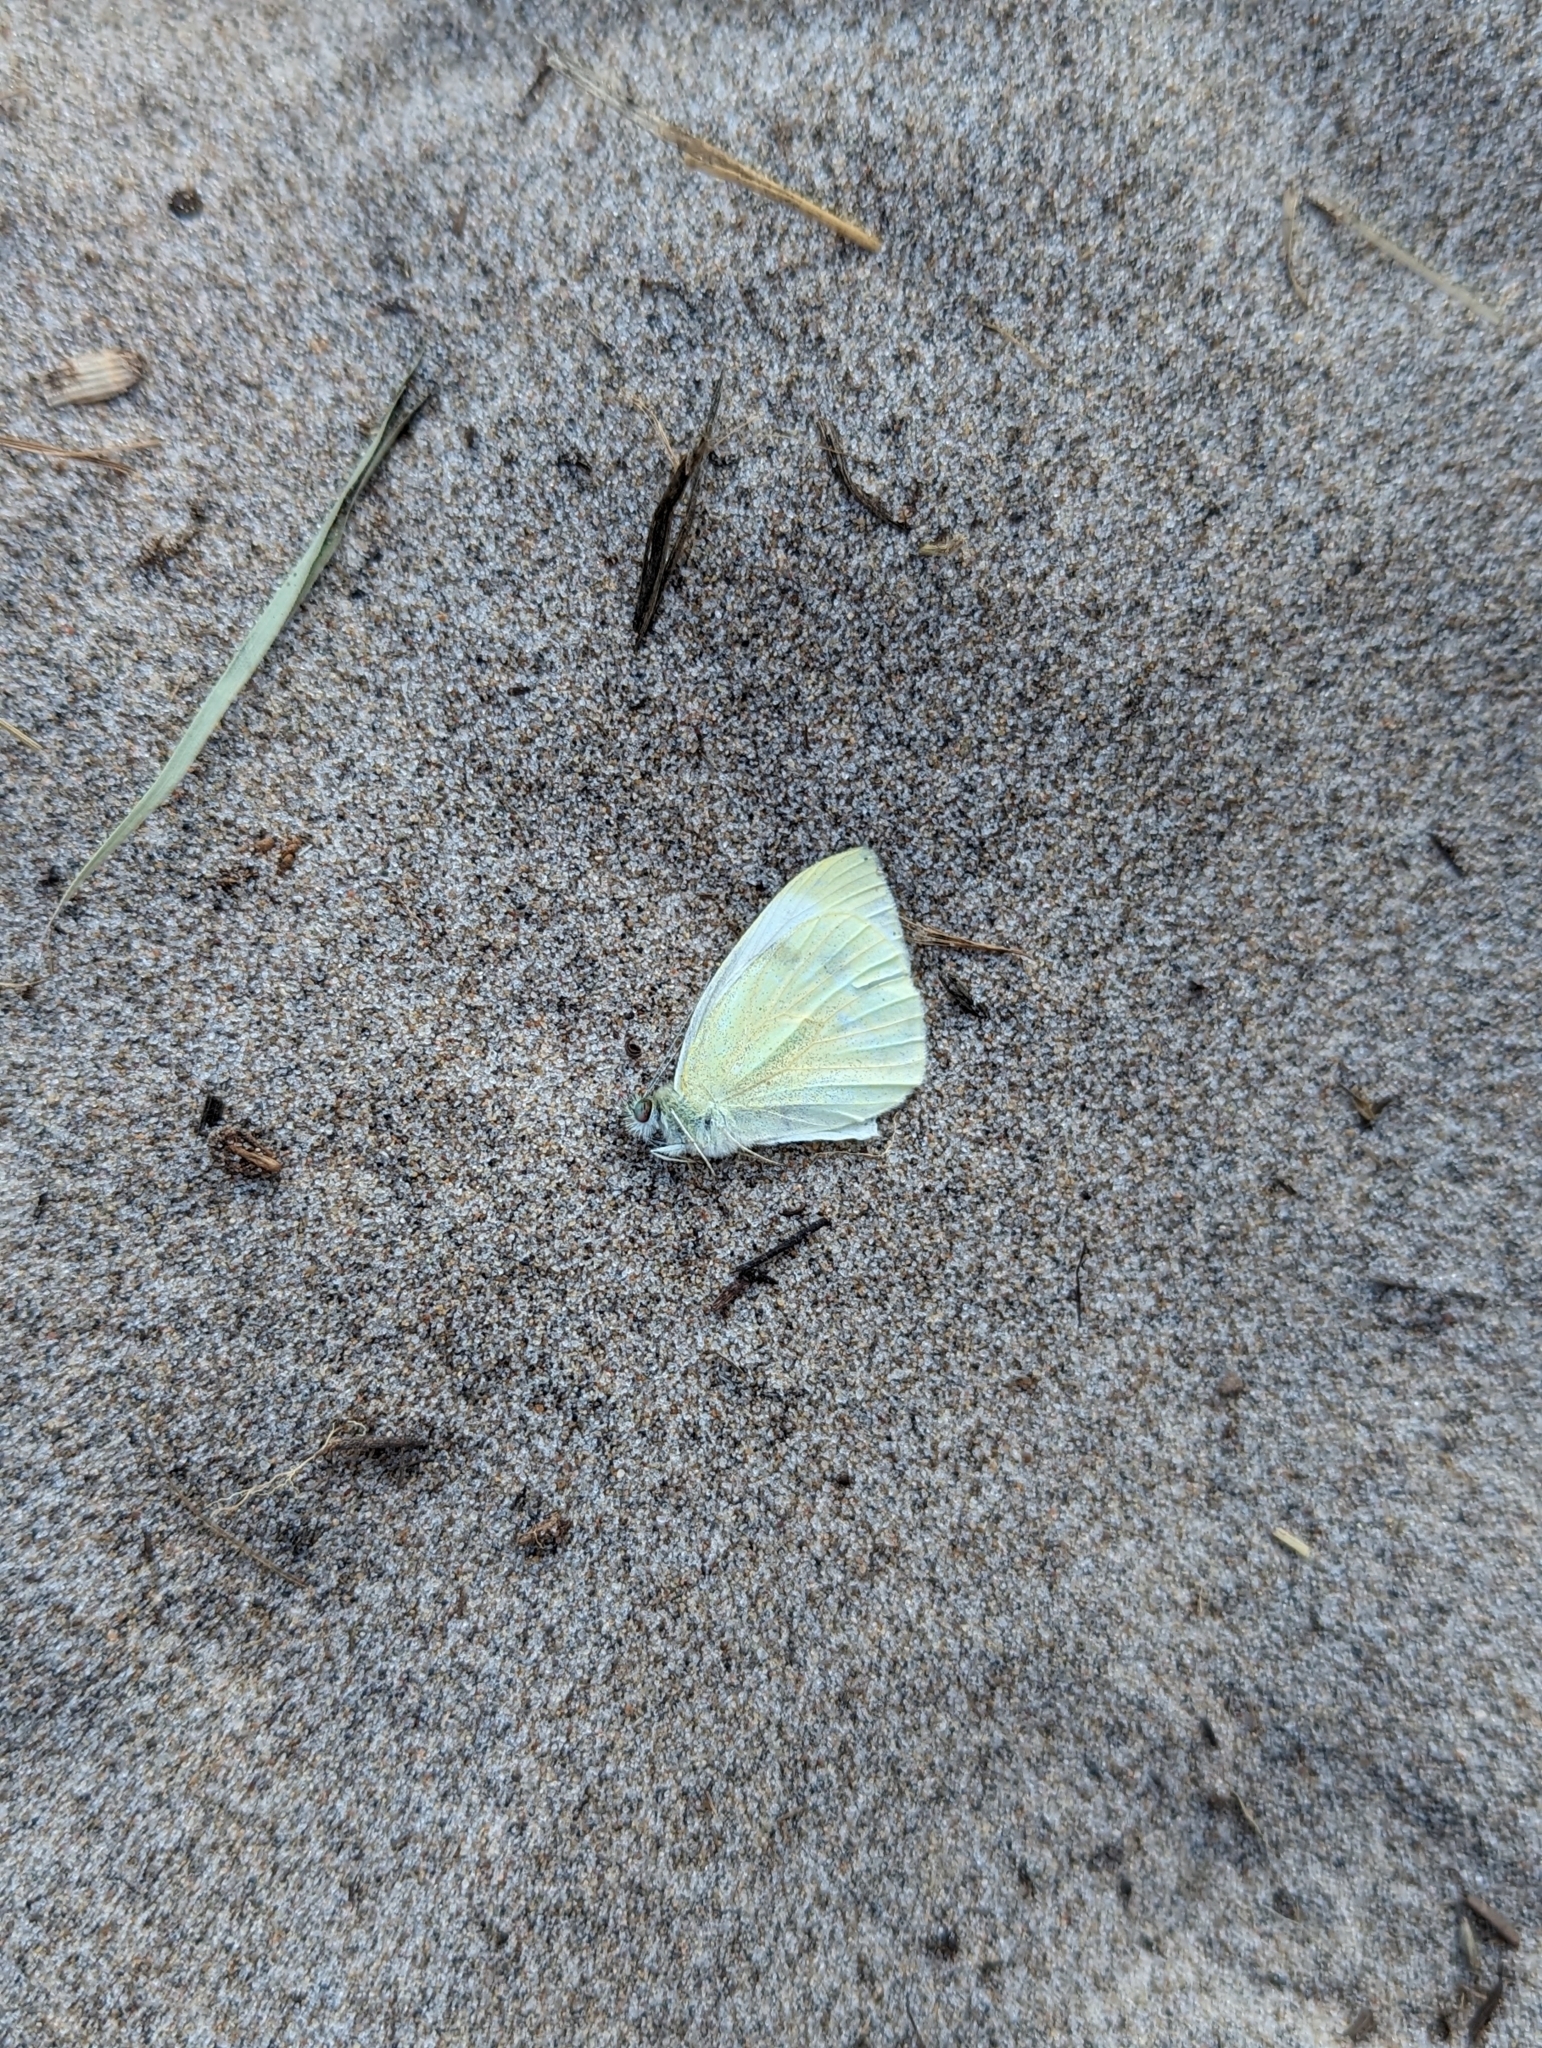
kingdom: Animalia
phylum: Arthropoda
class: Insecta
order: Lepidoptera
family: Pieridae
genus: Pieris
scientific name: Pieris rapae
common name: Small white
